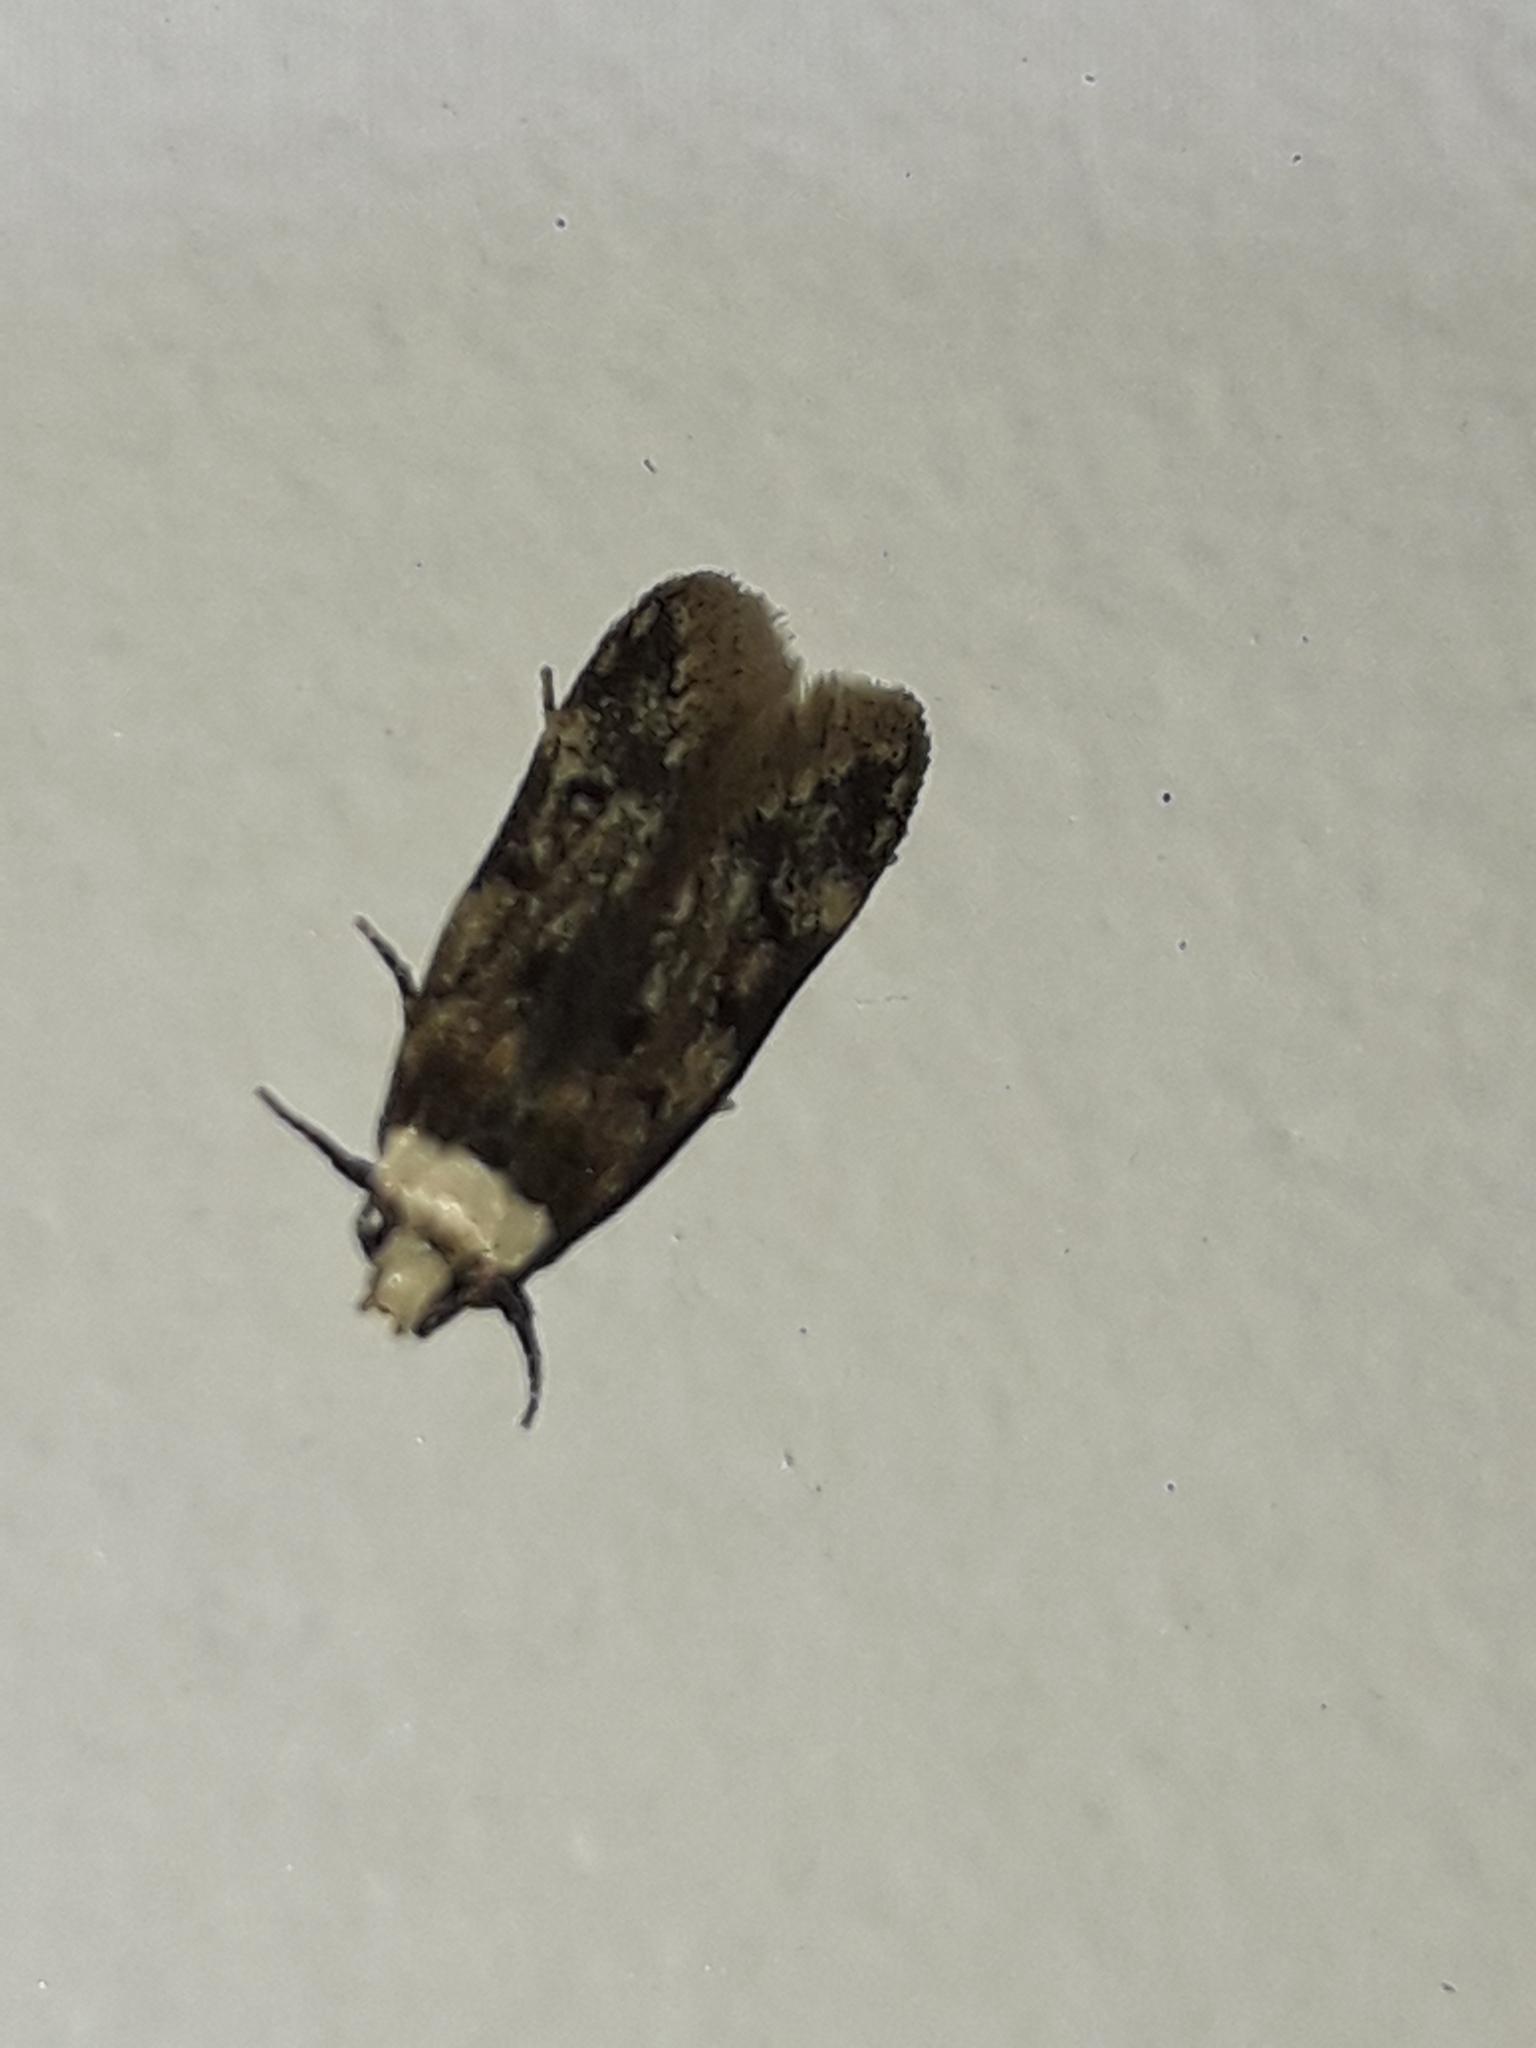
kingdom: Animalia
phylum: Arthropoda
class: Insecta
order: Lepidoptera
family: Oecophoridae
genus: Endrosis
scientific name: Endrosis sarcitrella
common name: White-shouldered house moth
